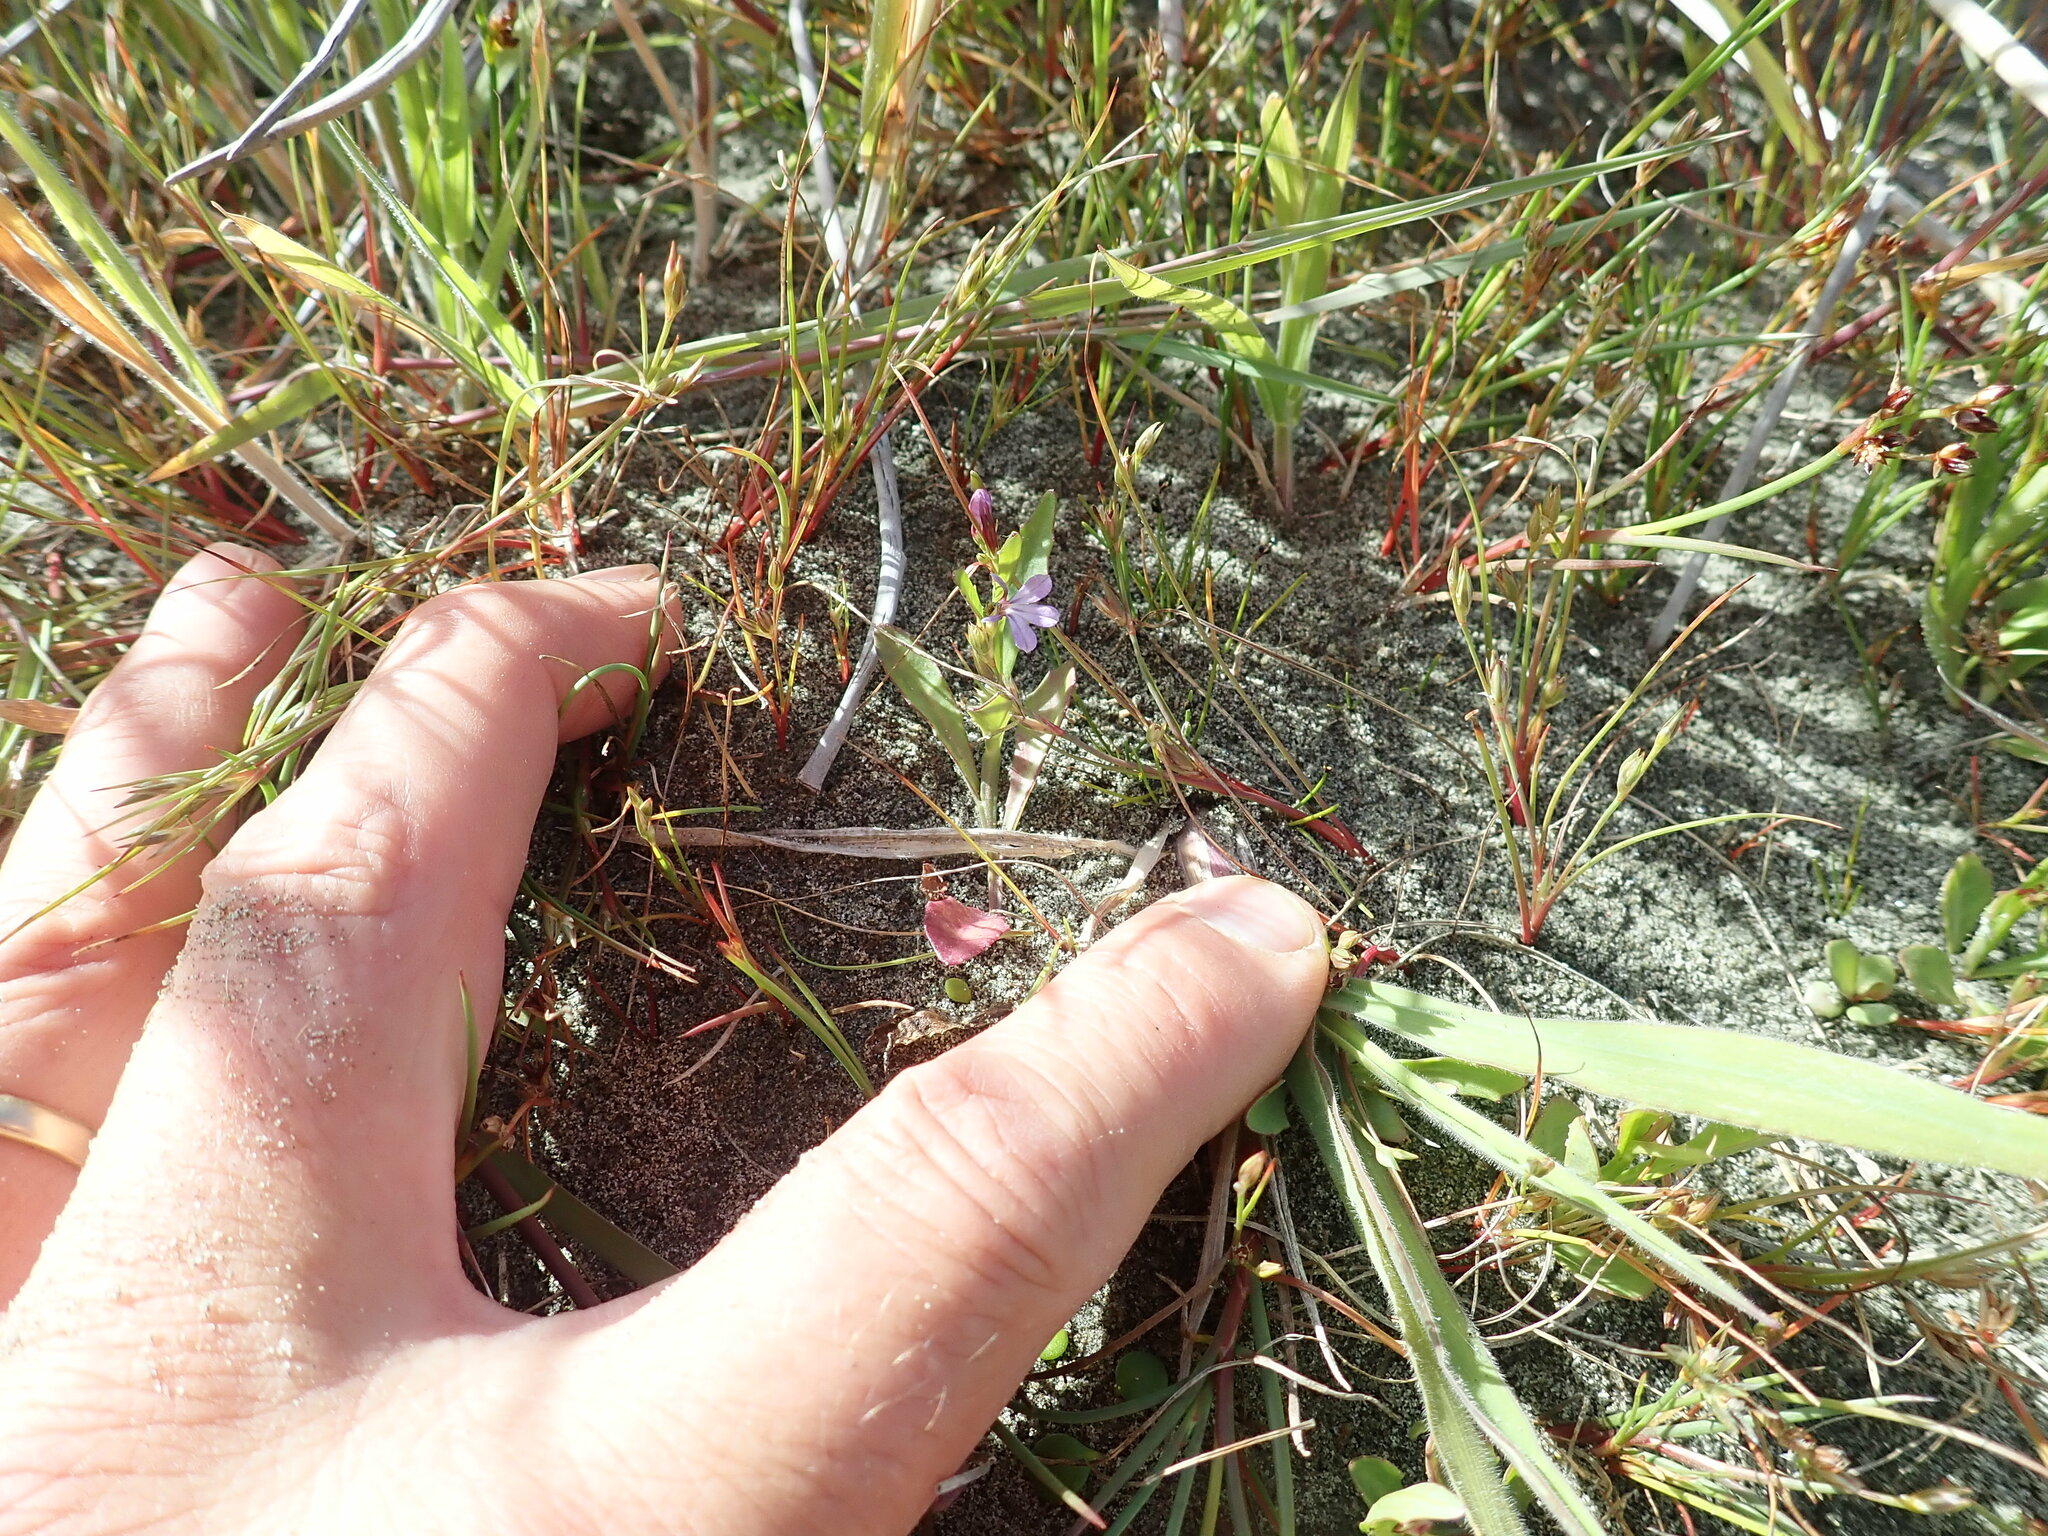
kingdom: Plantae
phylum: Tracheophyta
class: Magnoliopsida
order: Asterales
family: Campanulaceae
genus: Lobelia
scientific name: Lobelia anceps
